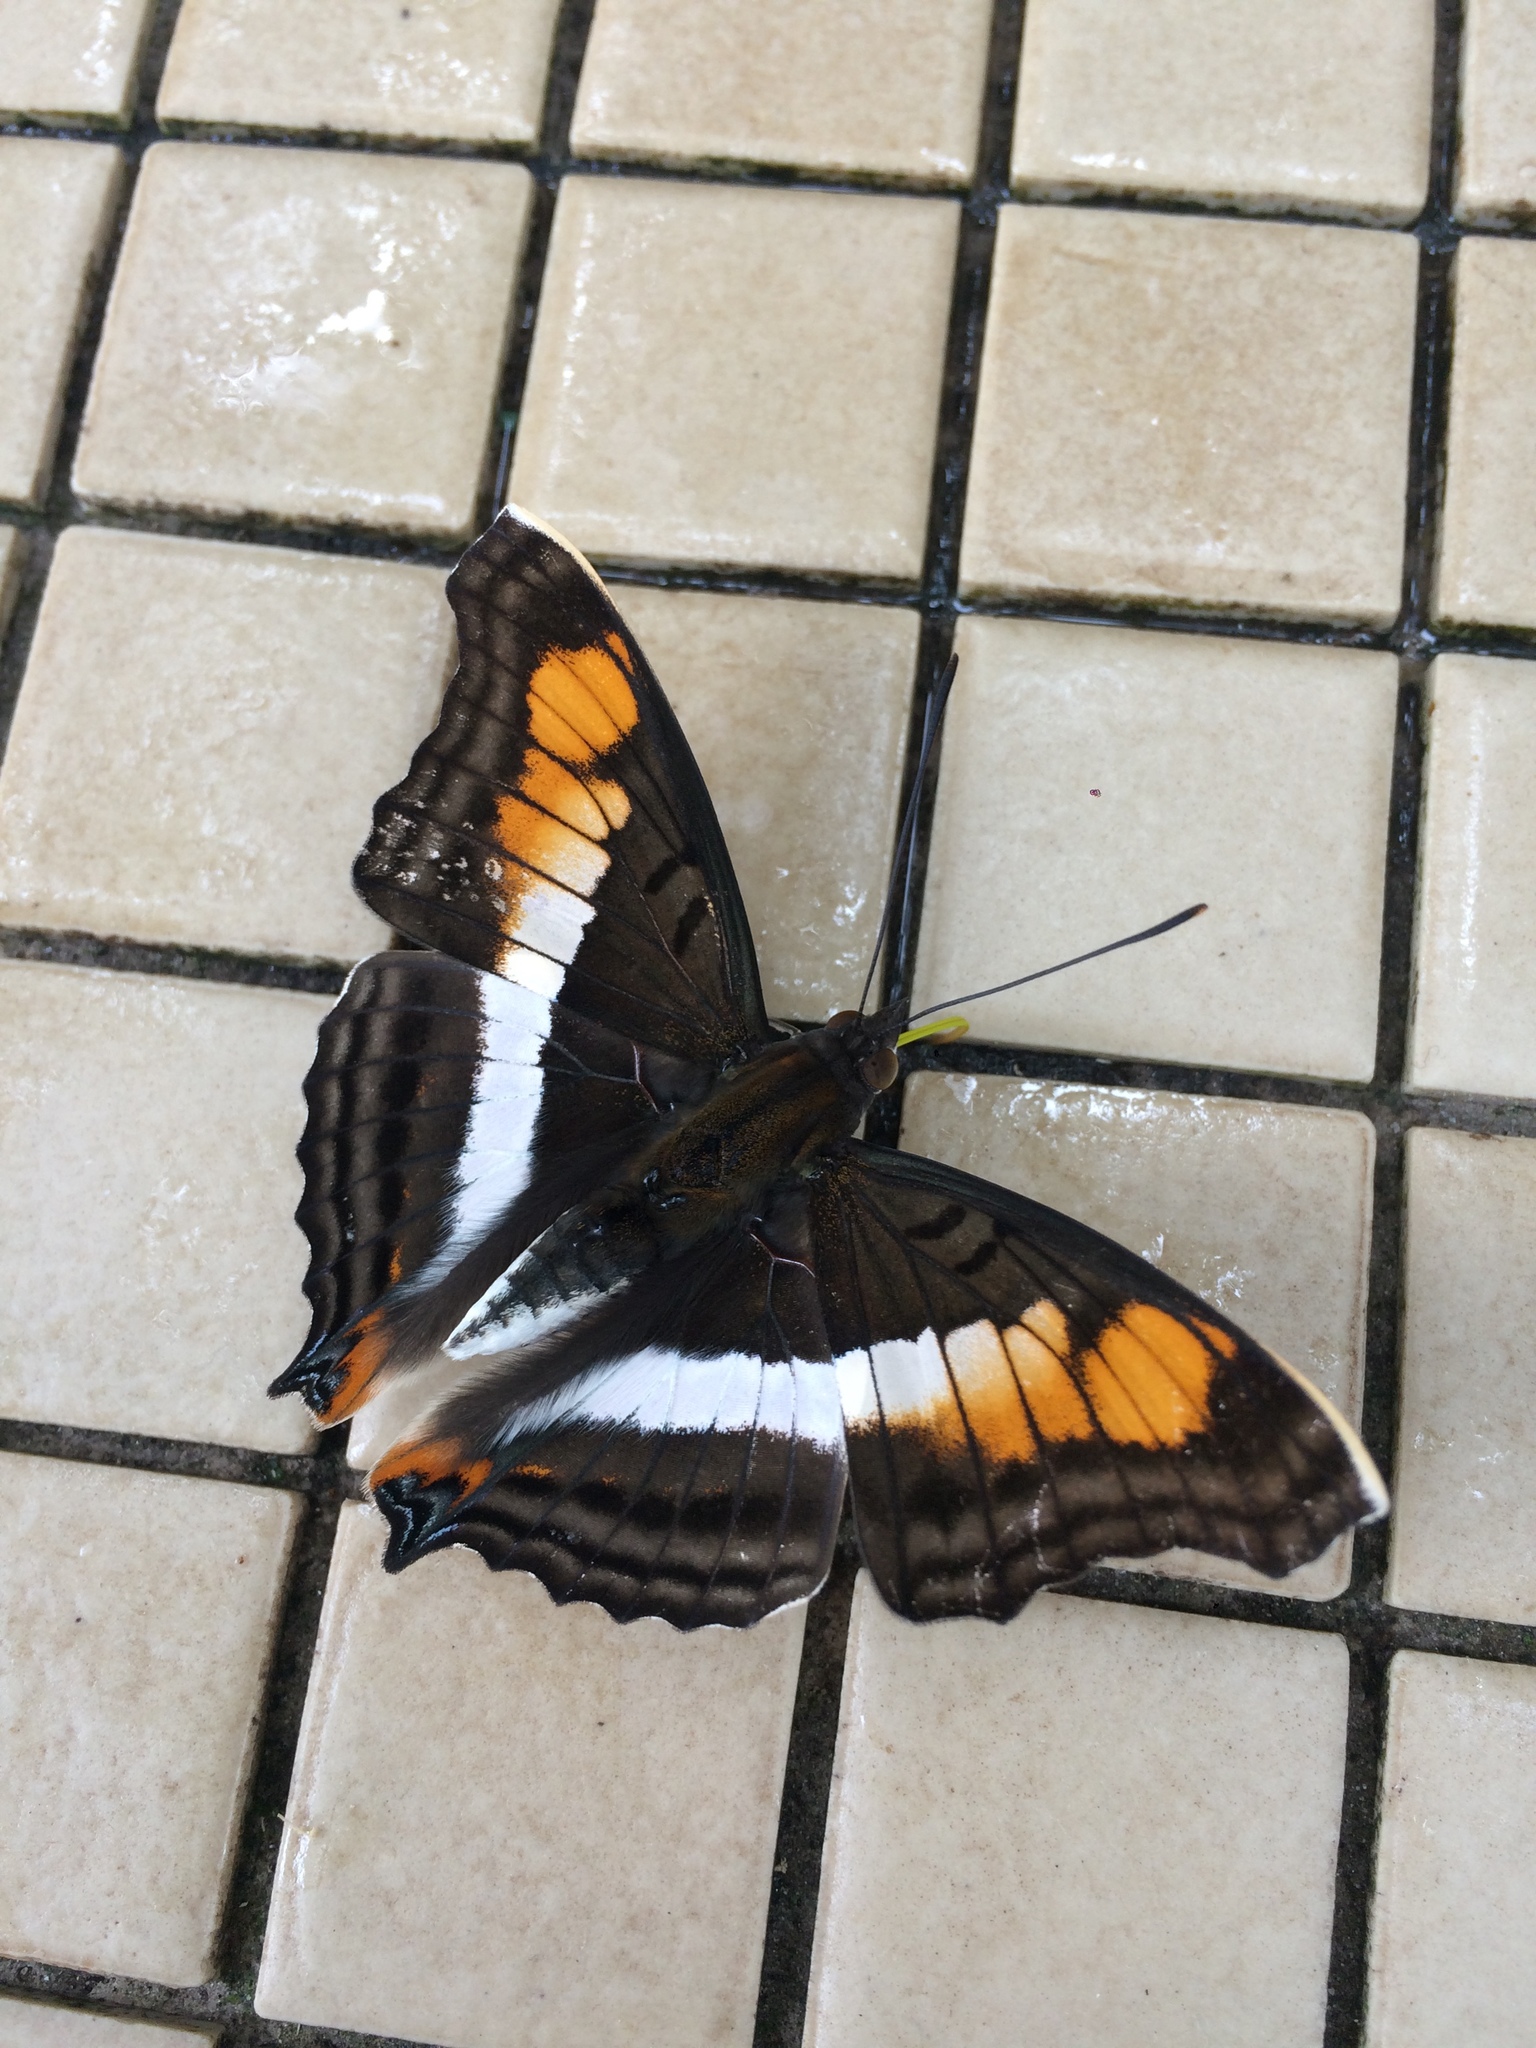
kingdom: Animalia
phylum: Arthropoda
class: Insecta
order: Lepidoptera
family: Nymphalidae
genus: Doxocopa
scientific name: Doxocopa linda
